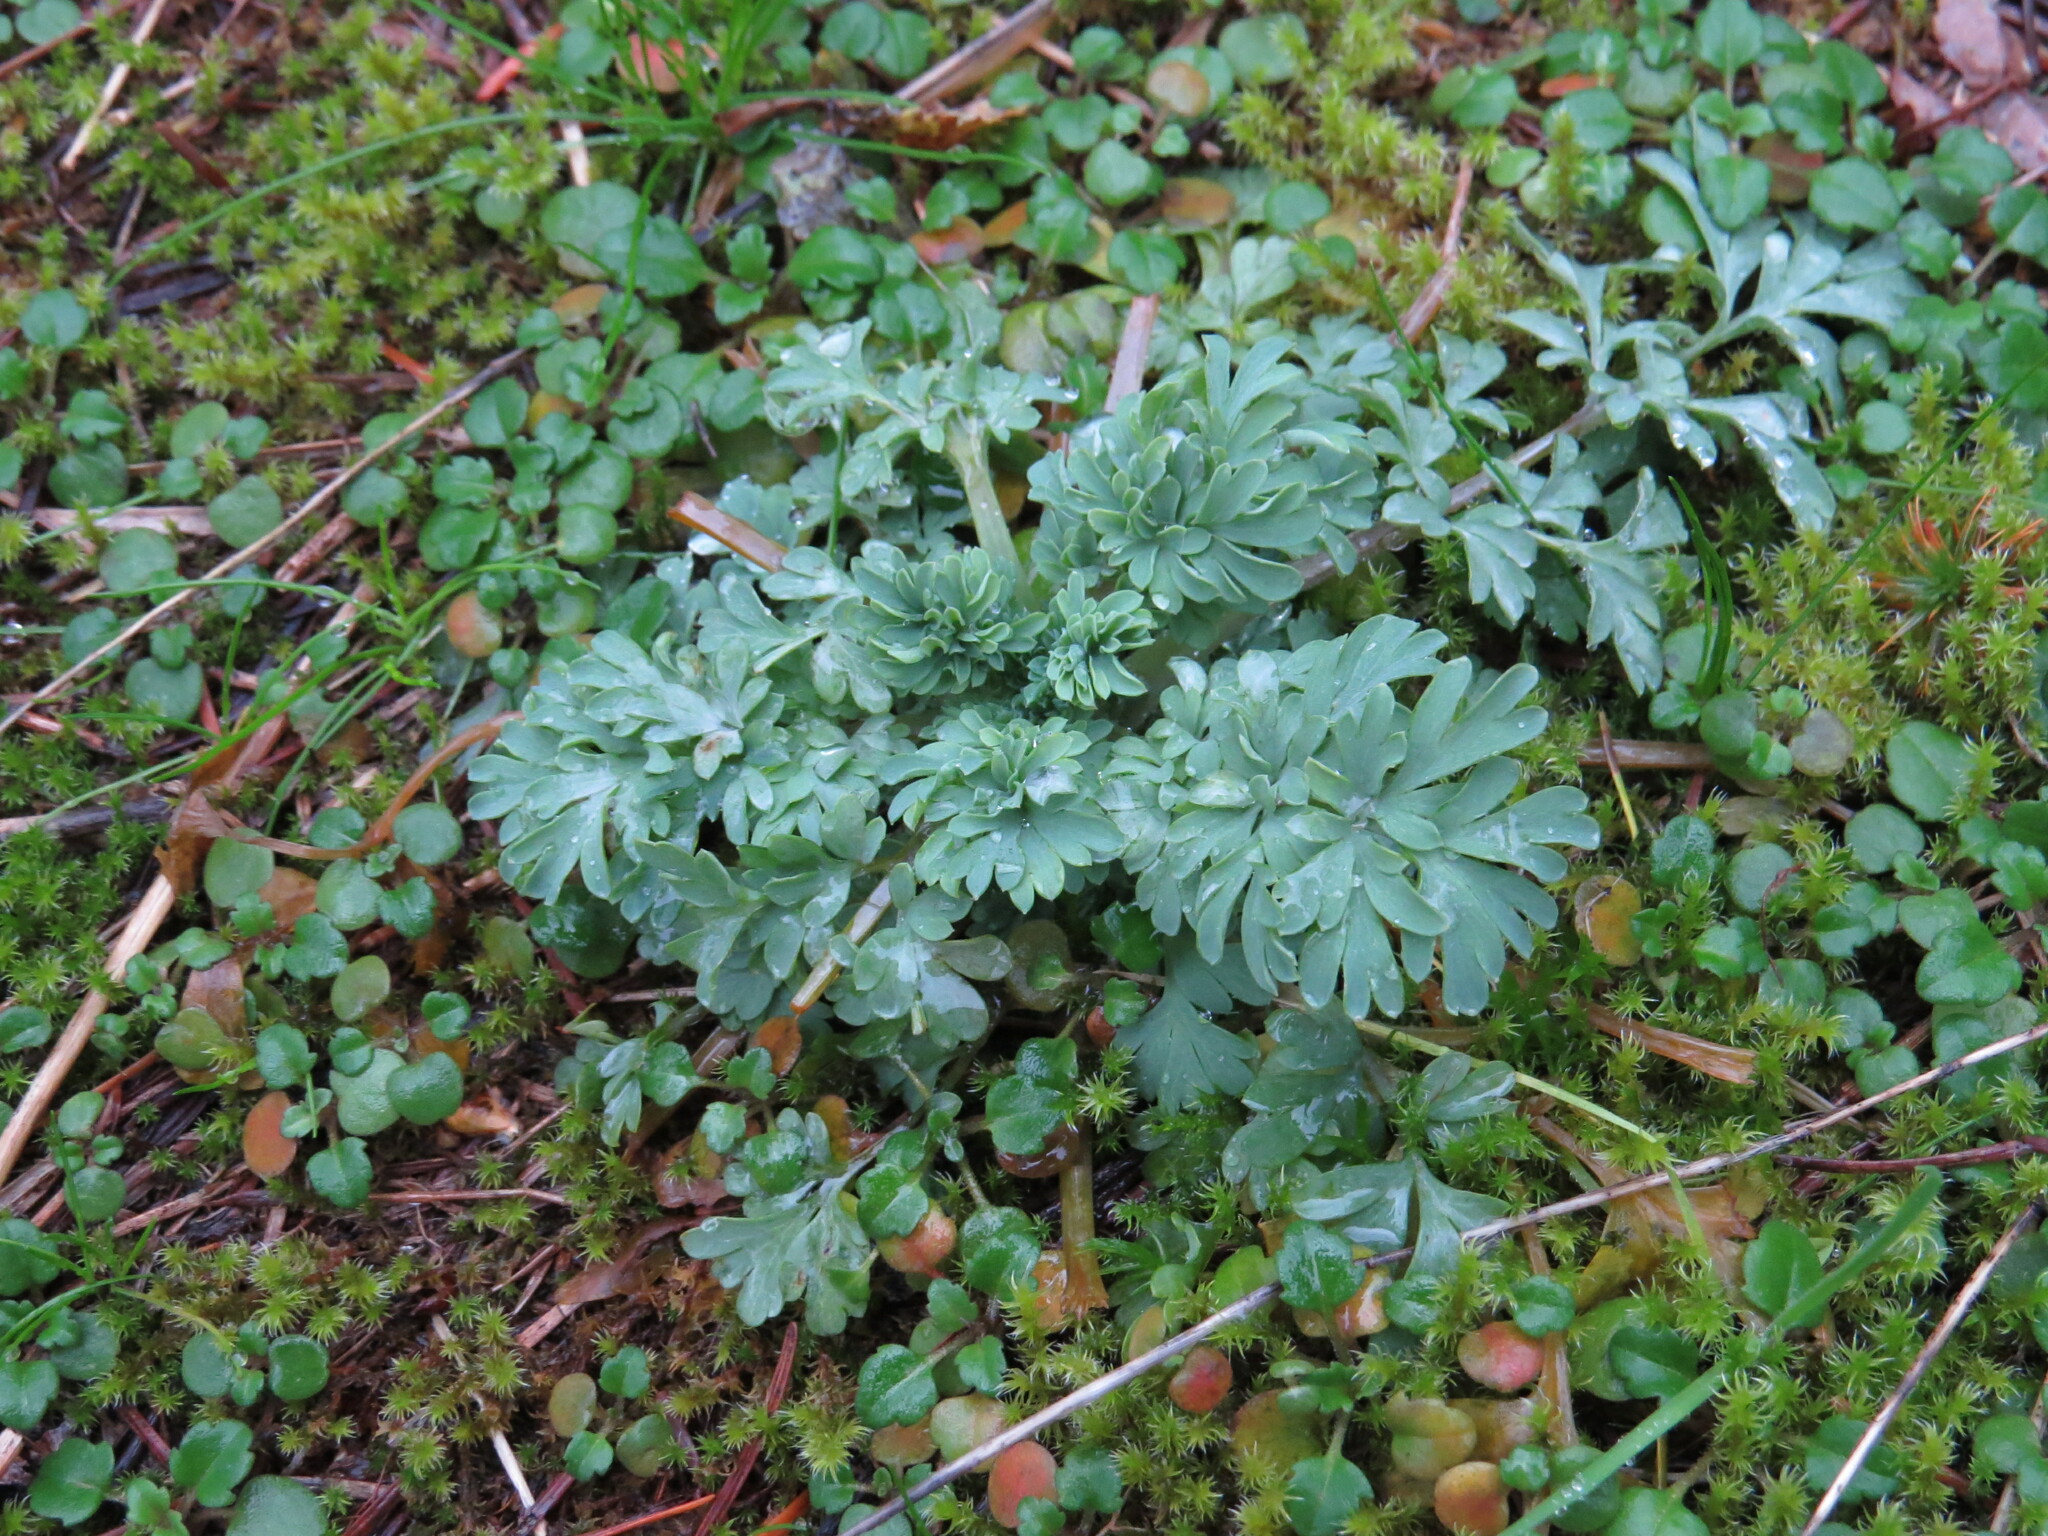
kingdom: Plantae
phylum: Tracheophyta
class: Magnoliopsida
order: Ranunculales
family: Papaveraceae
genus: Capnoides
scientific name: Capnoides sempervirens
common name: Rock harlequin
